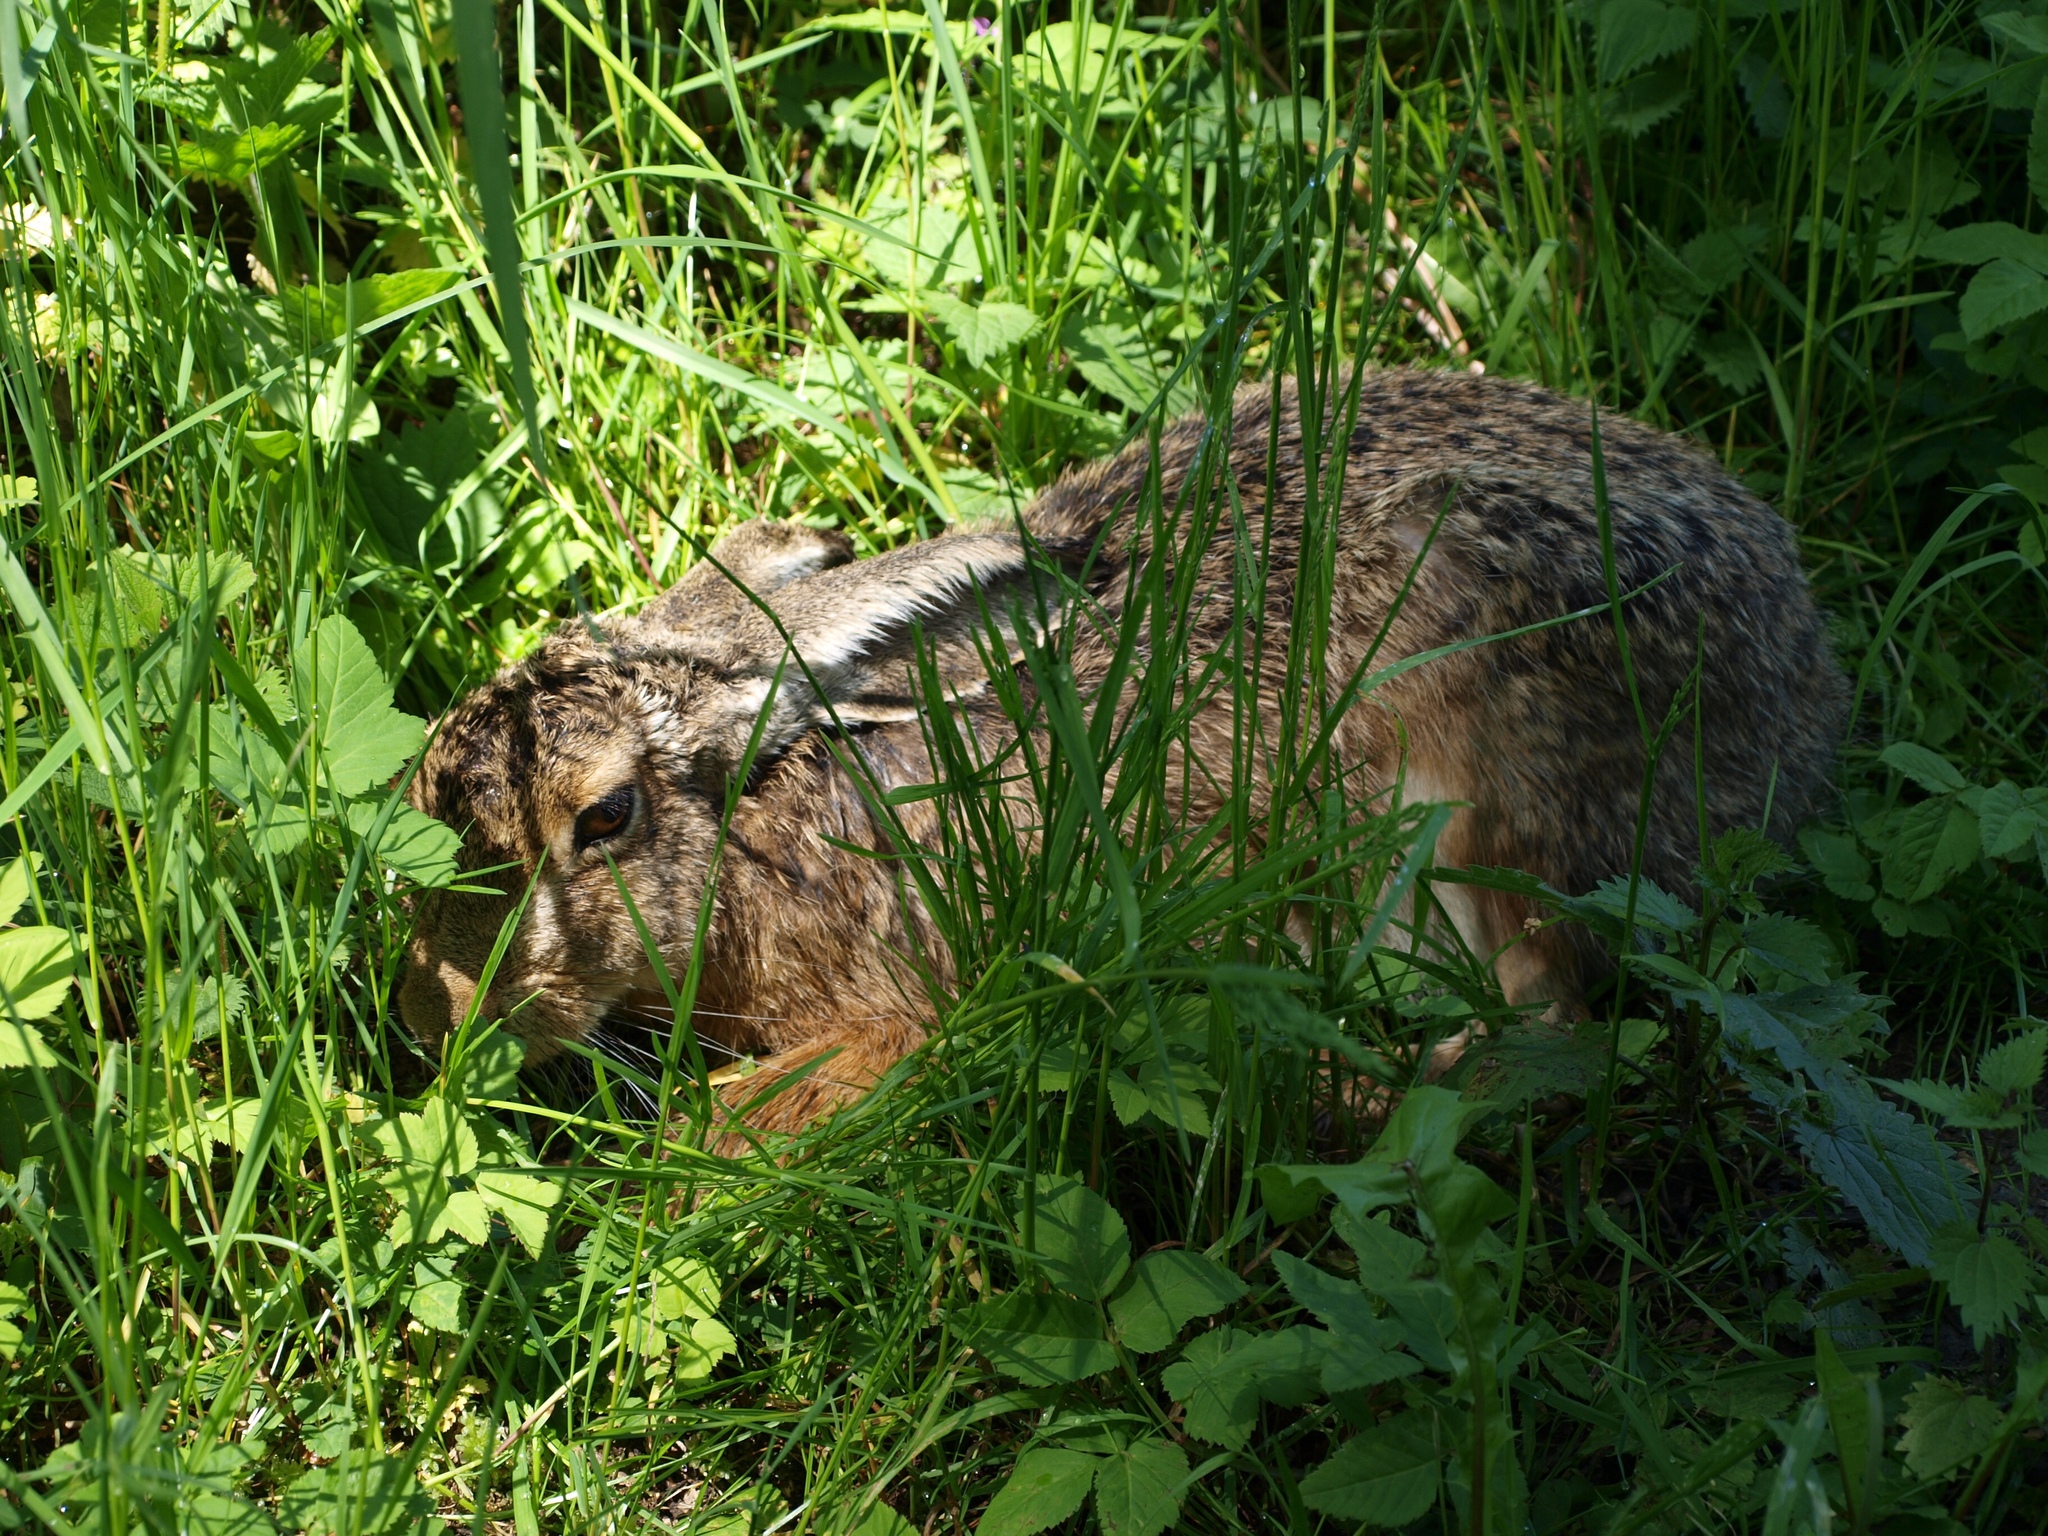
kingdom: Animalia
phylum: Chordata
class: Mammalia
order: Lagomorpha
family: Leporidae
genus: Lepus
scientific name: Lepus europaeus
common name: European hare
